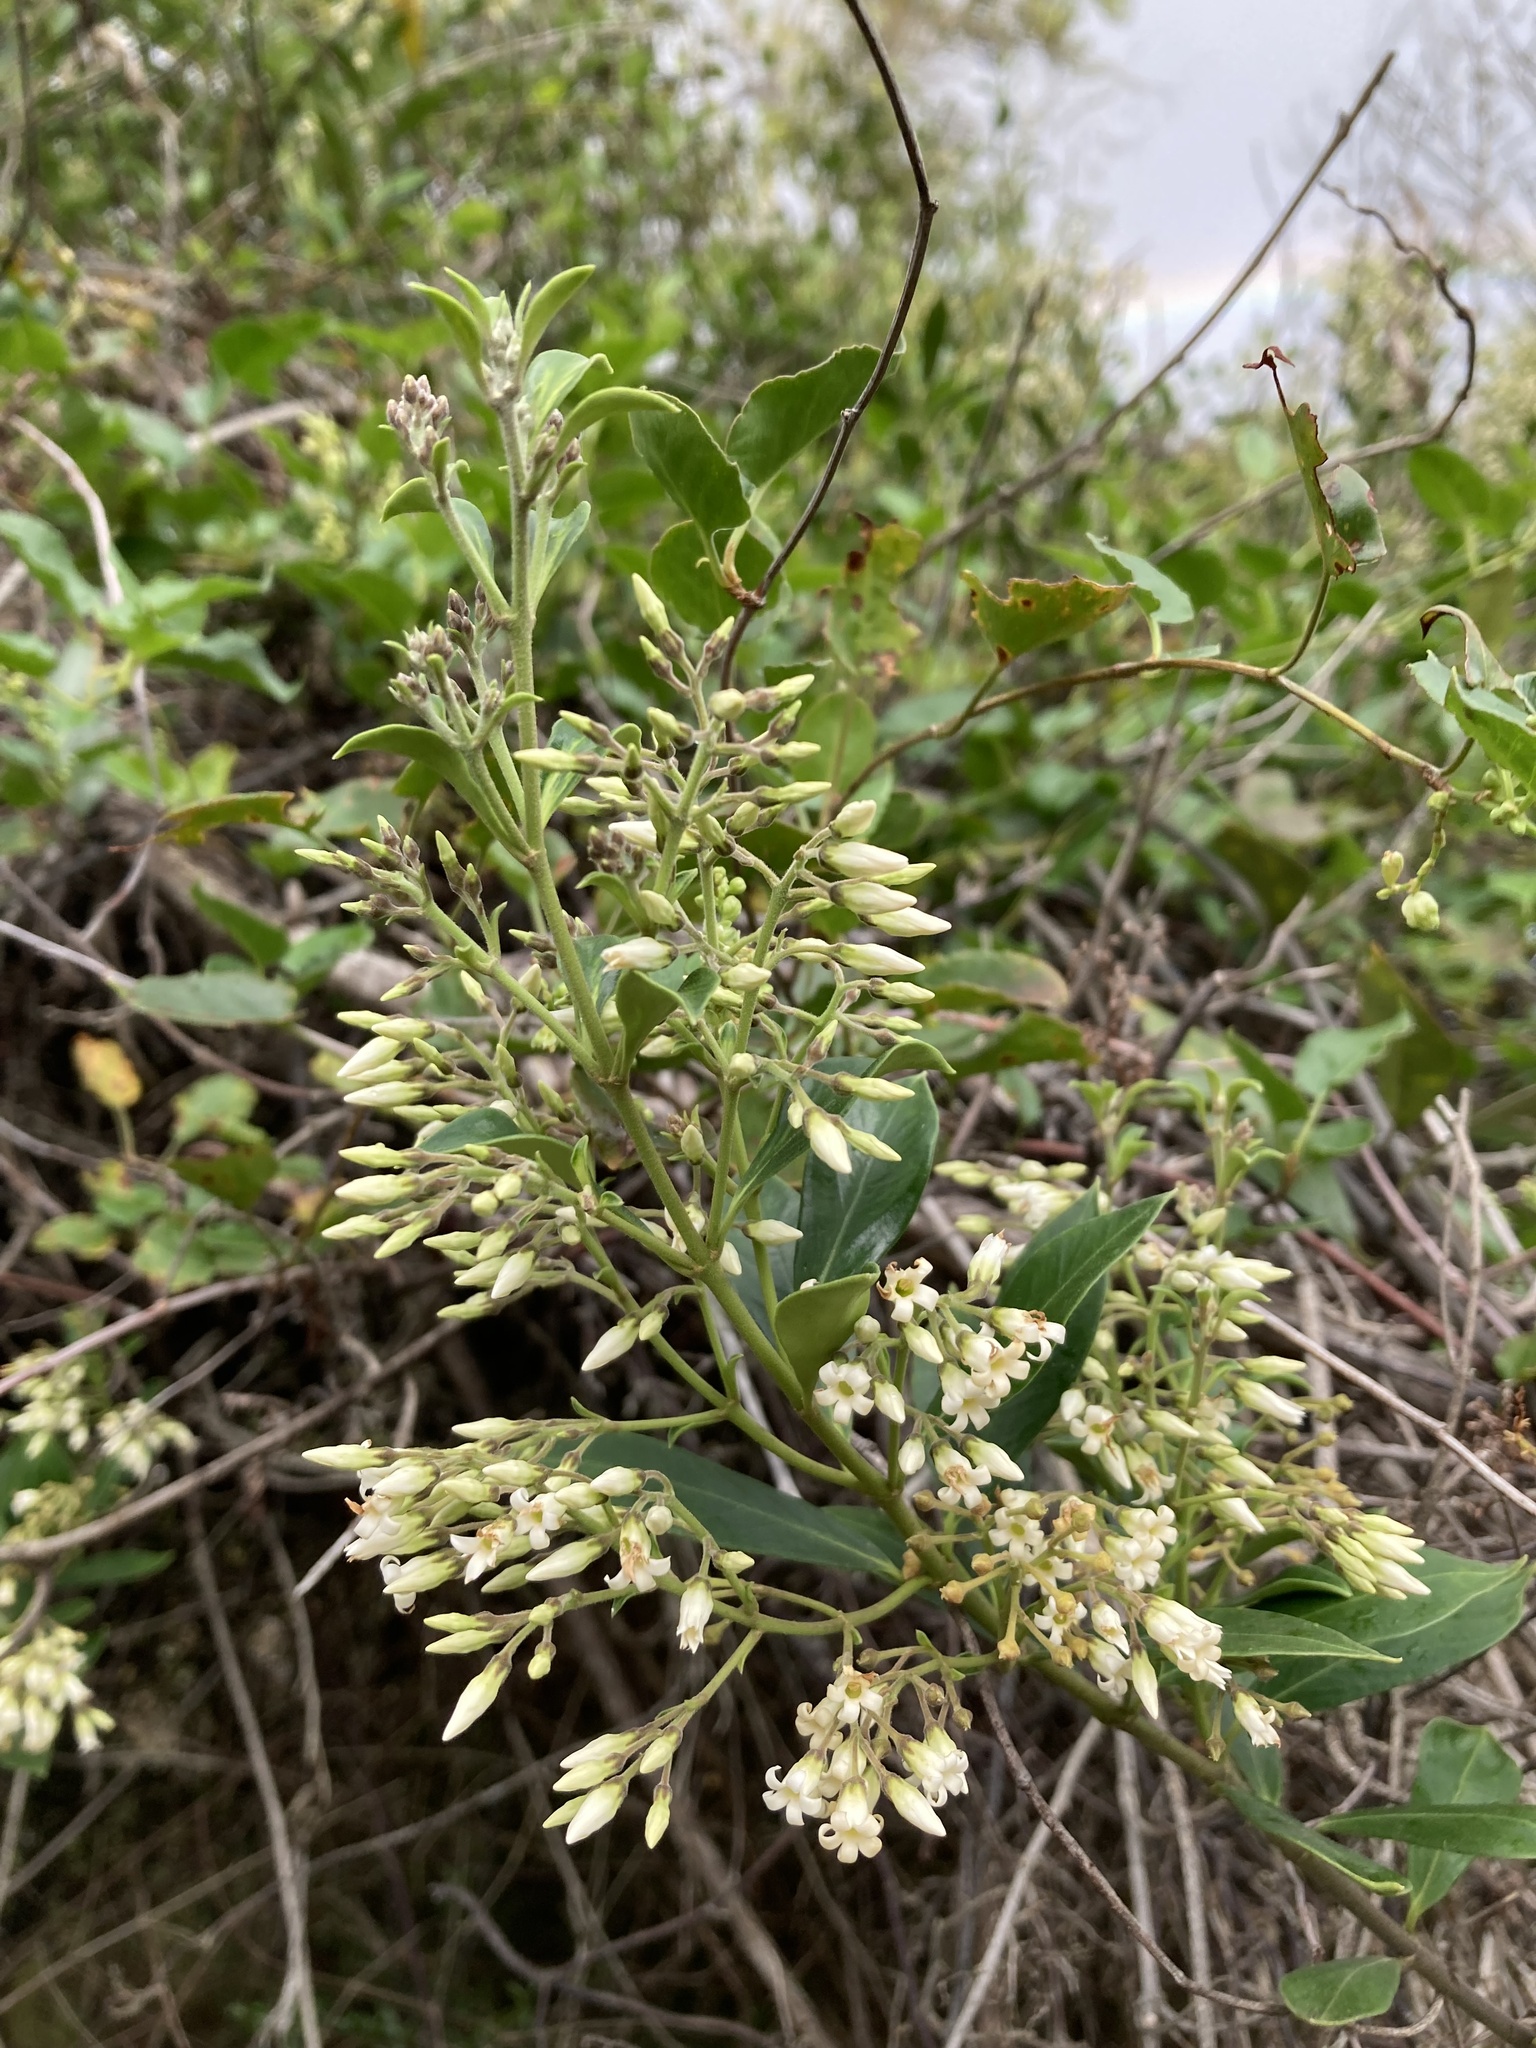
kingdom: Plantae
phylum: Tracheophyta
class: Magnoliopsida
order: Gentianales
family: Apocynaceae
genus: Parsonsia
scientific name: Parsonsia heterophylla
